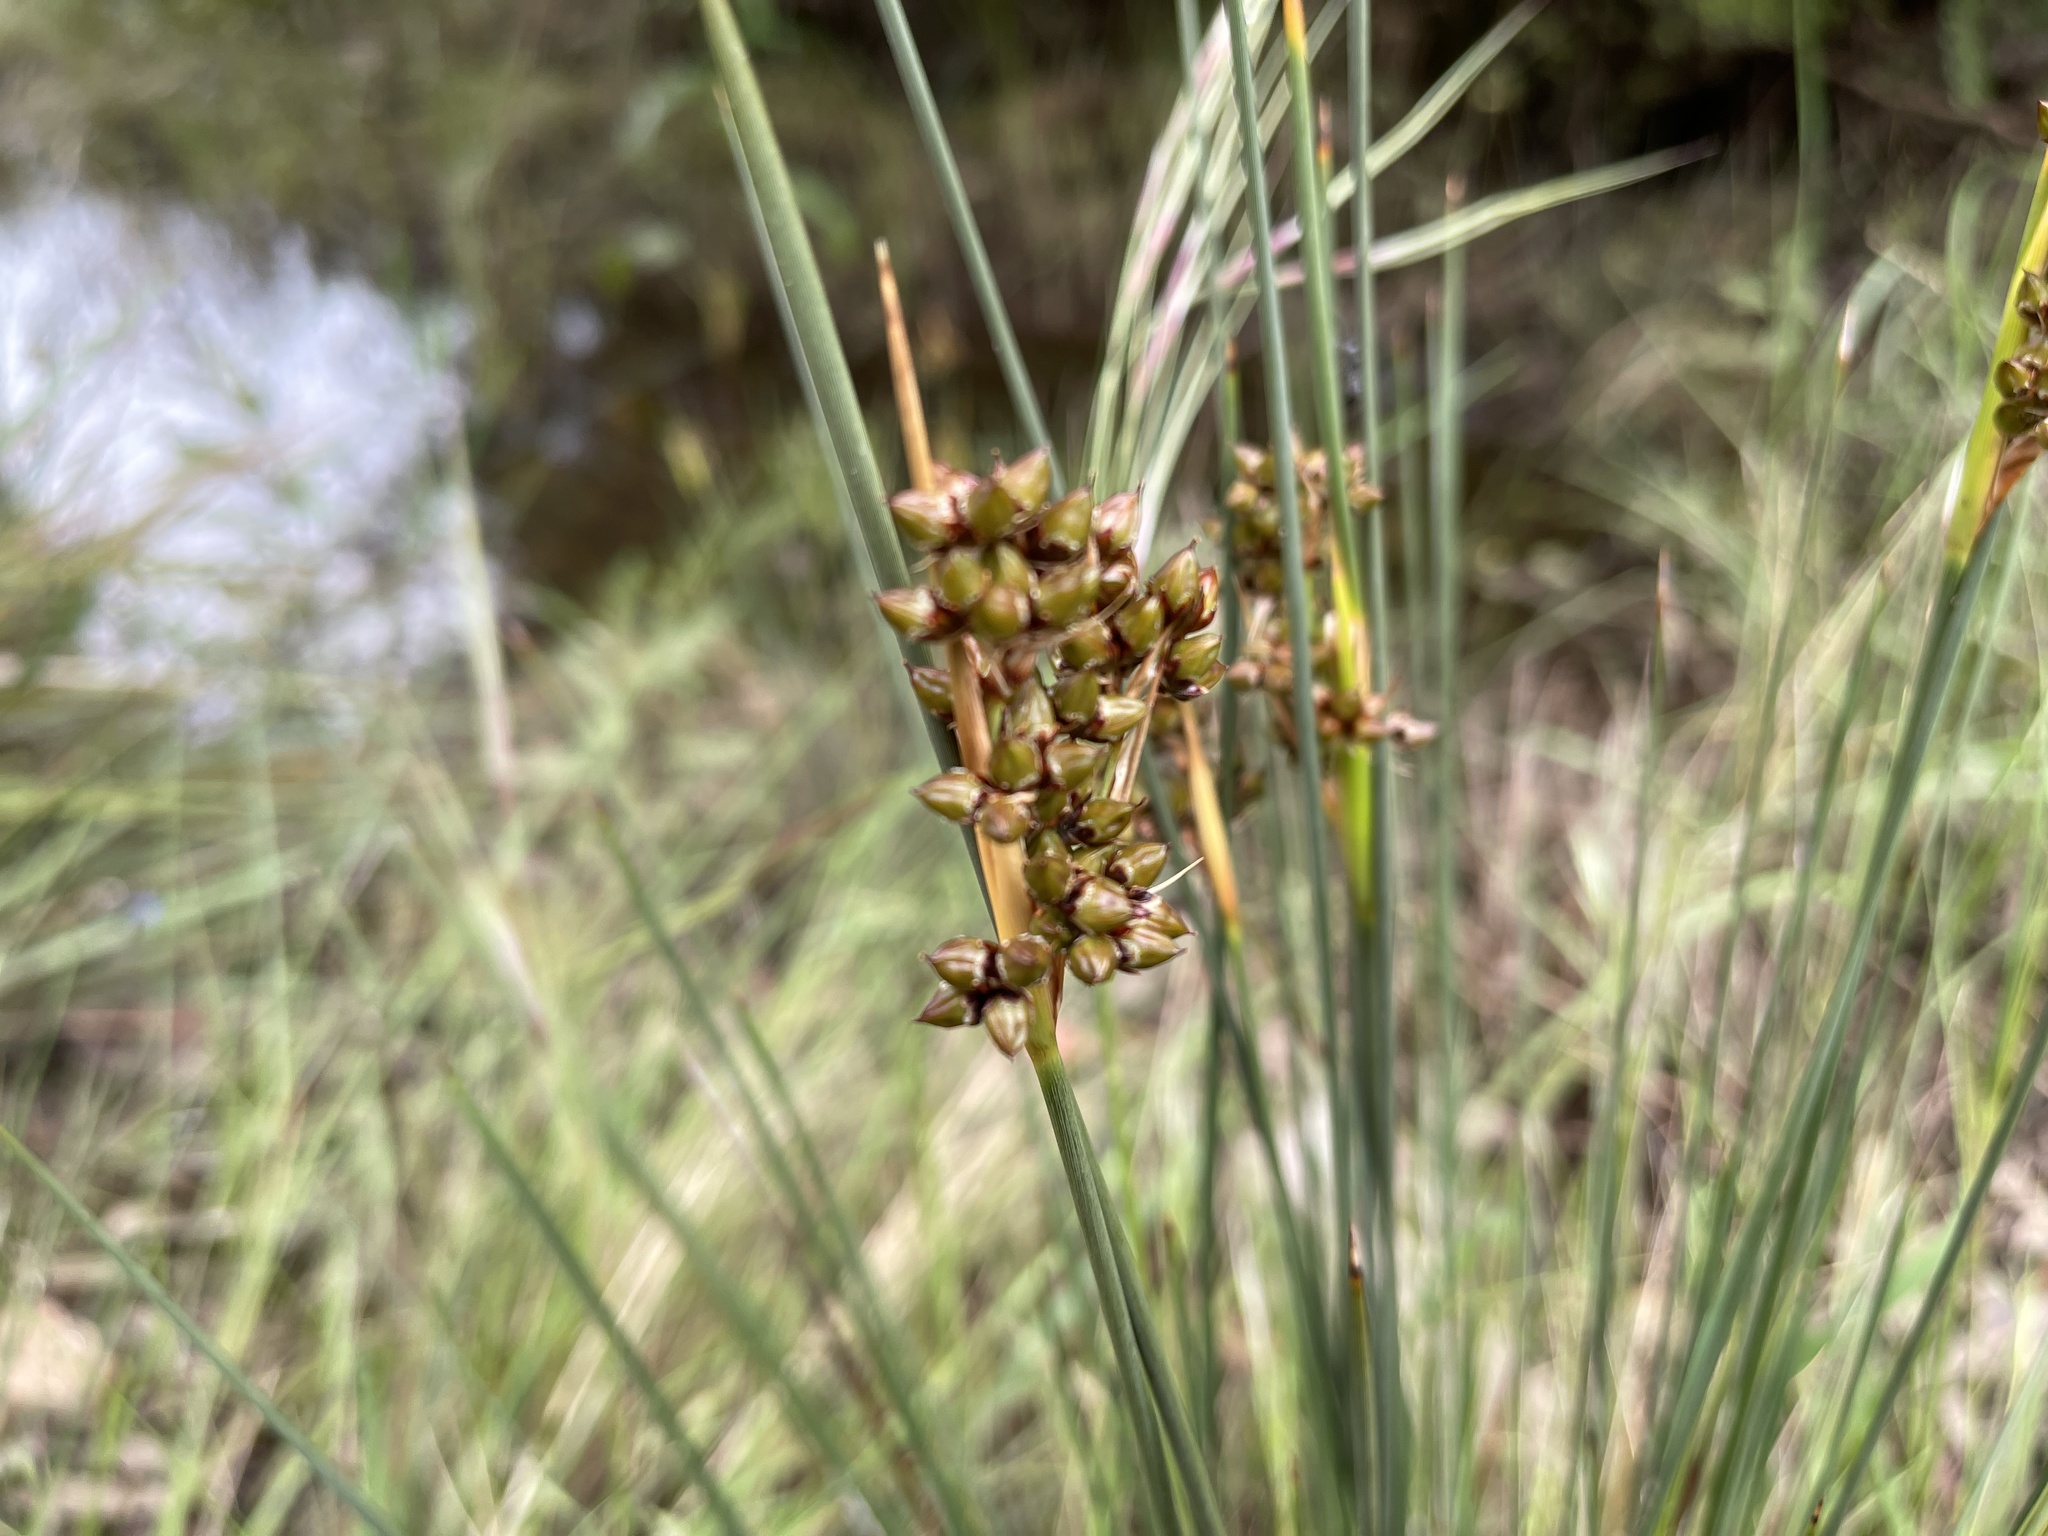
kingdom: Plantae
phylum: Tracheophyta
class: Liliopsida
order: Poales
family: Juncaceae
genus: Juncus
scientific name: Juncus acutus
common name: Sharp rush
